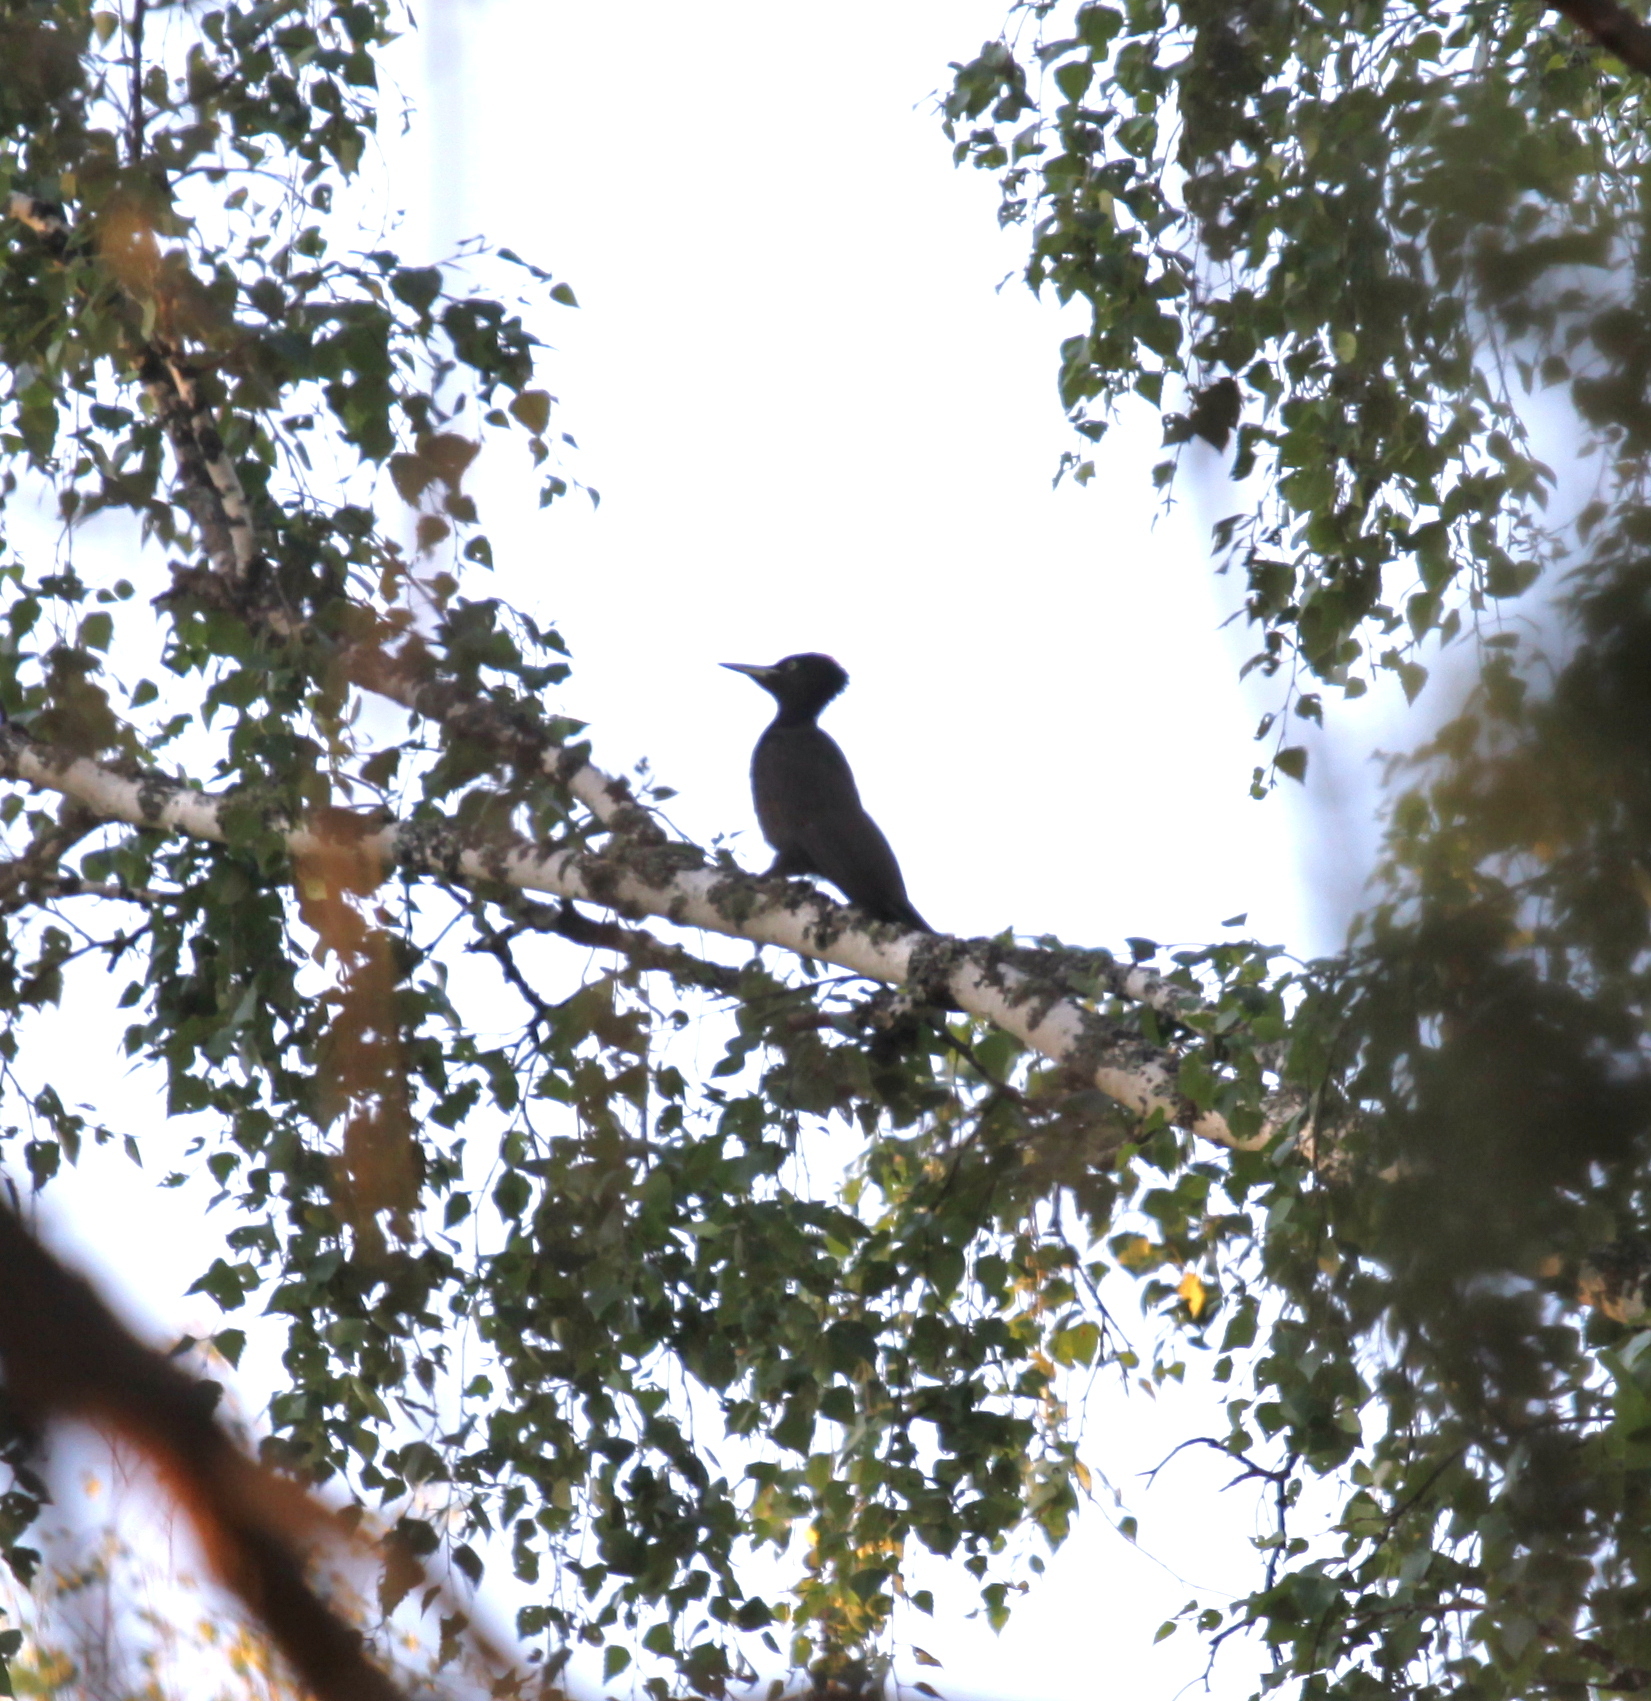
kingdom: Animalia
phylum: Chordata
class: Aves
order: Piciformes
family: Picidae
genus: Dryocopus
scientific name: Dryocopus martius
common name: Black woodpecker
